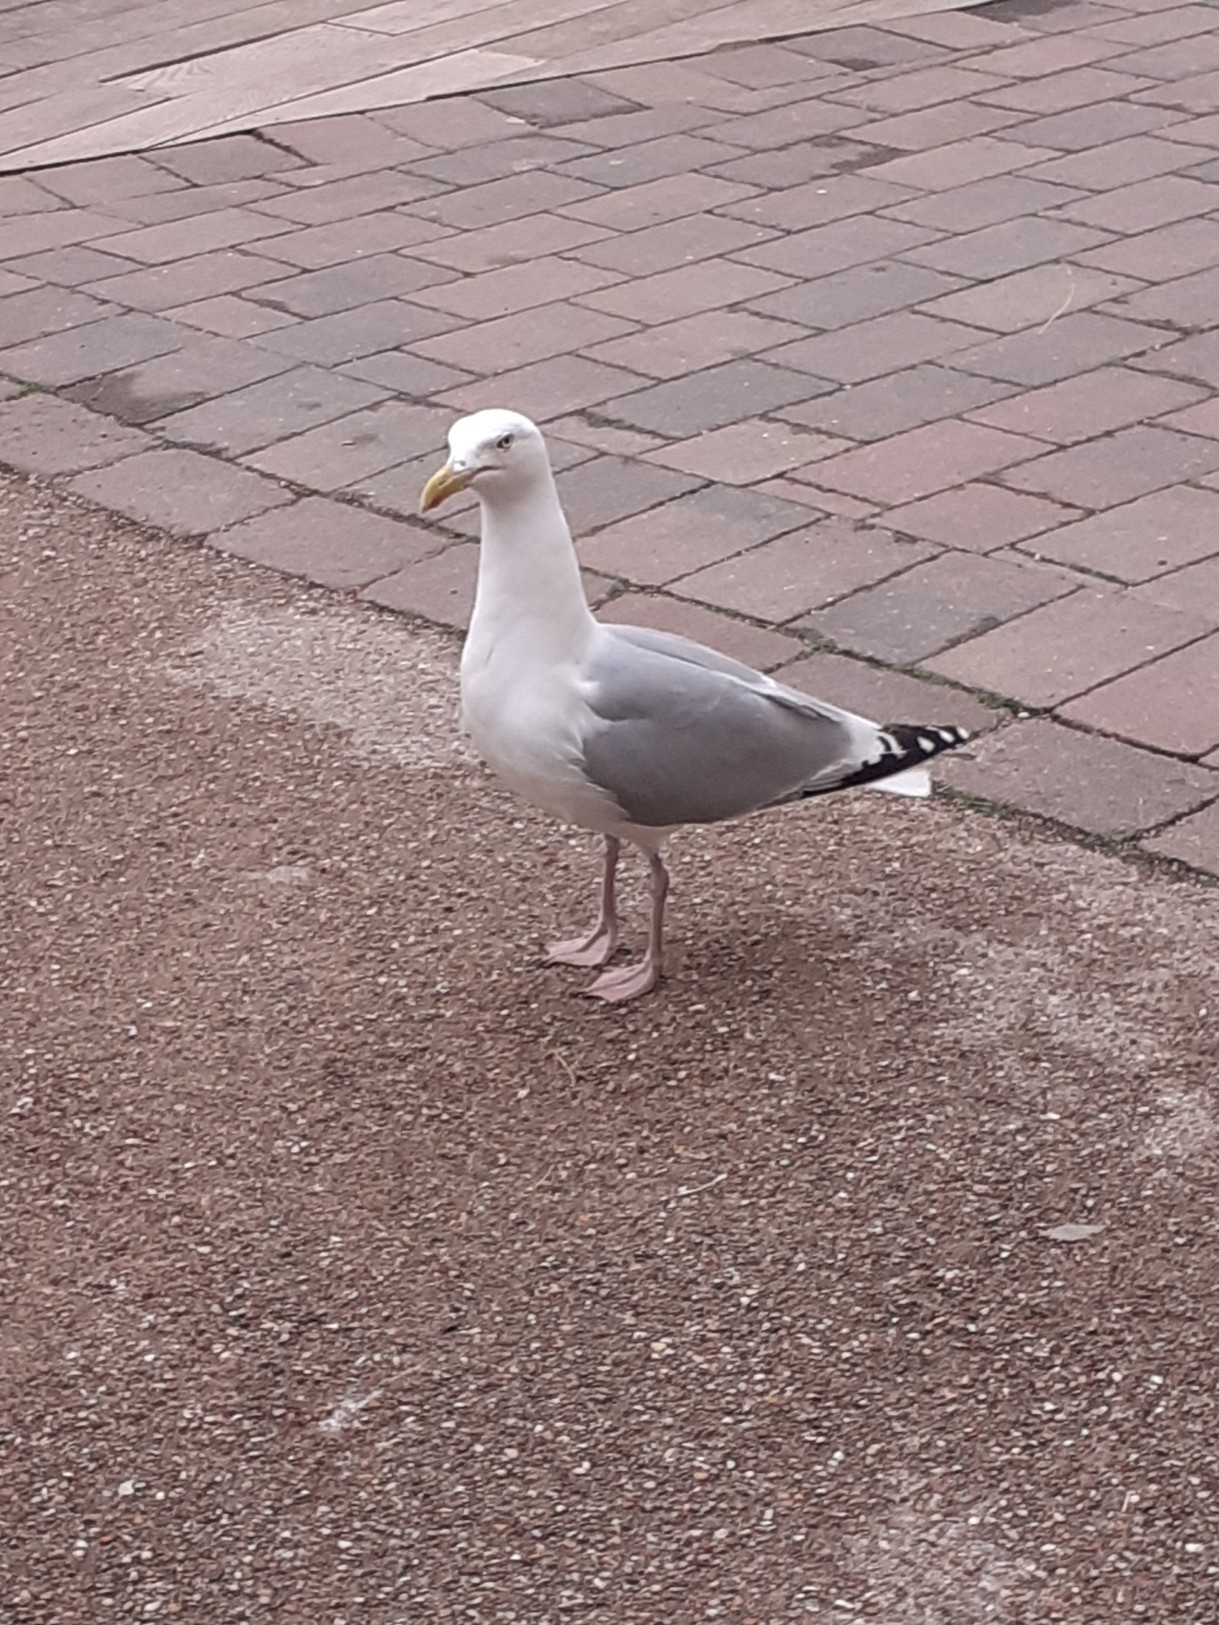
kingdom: Animalia
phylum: Chordata
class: Aves
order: Charadriiformes
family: Laridae
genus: Larus
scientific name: Larus argentatus
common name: Herring gull
